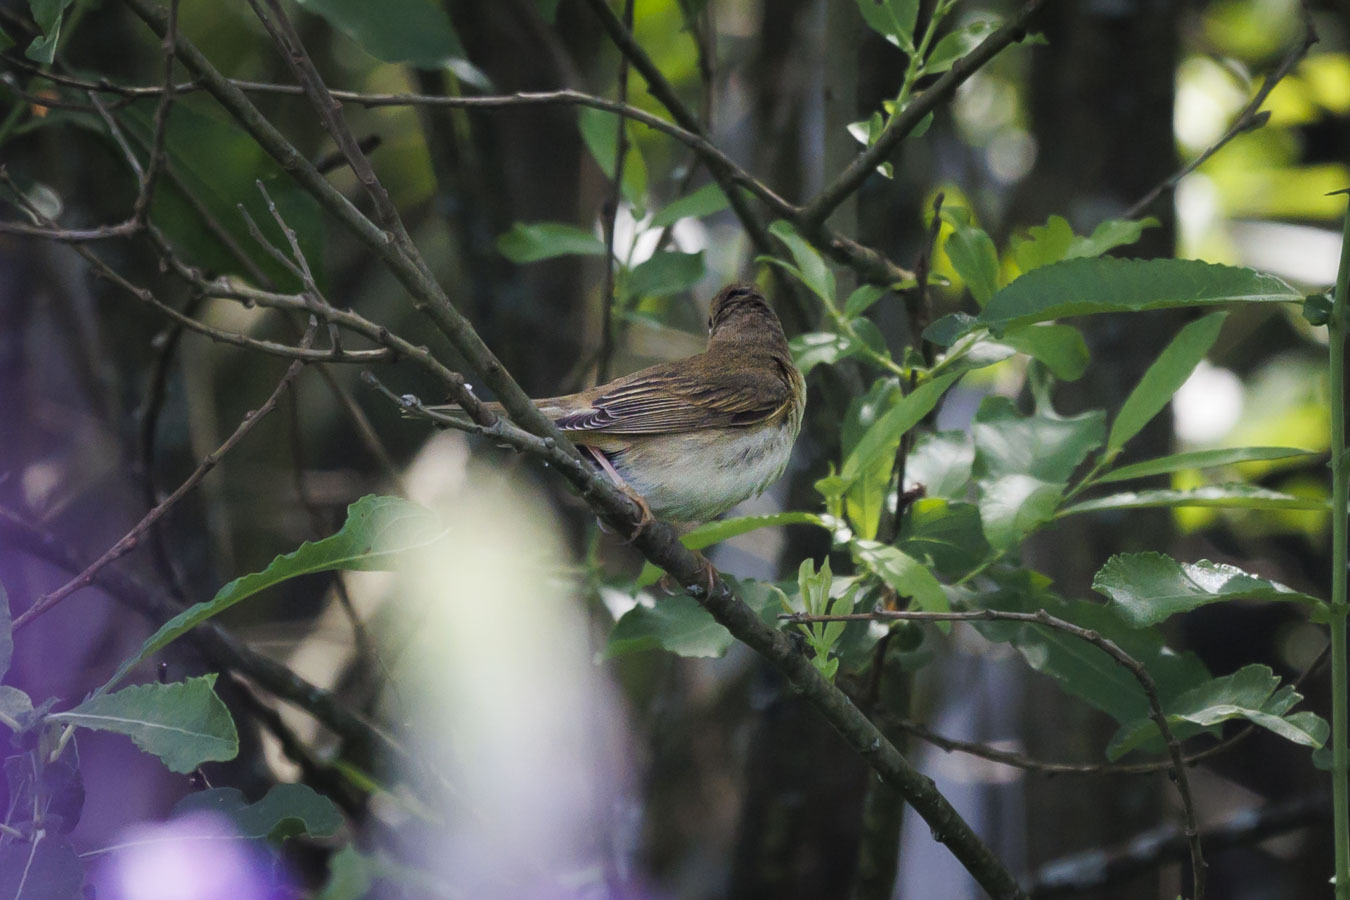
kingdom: Animalia
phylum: Chordata
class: Aves
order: Passeriformes
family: Acrocephalidae
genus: Acrocephalus
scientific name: Acrocephalus palustris
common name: Marsh warbler
